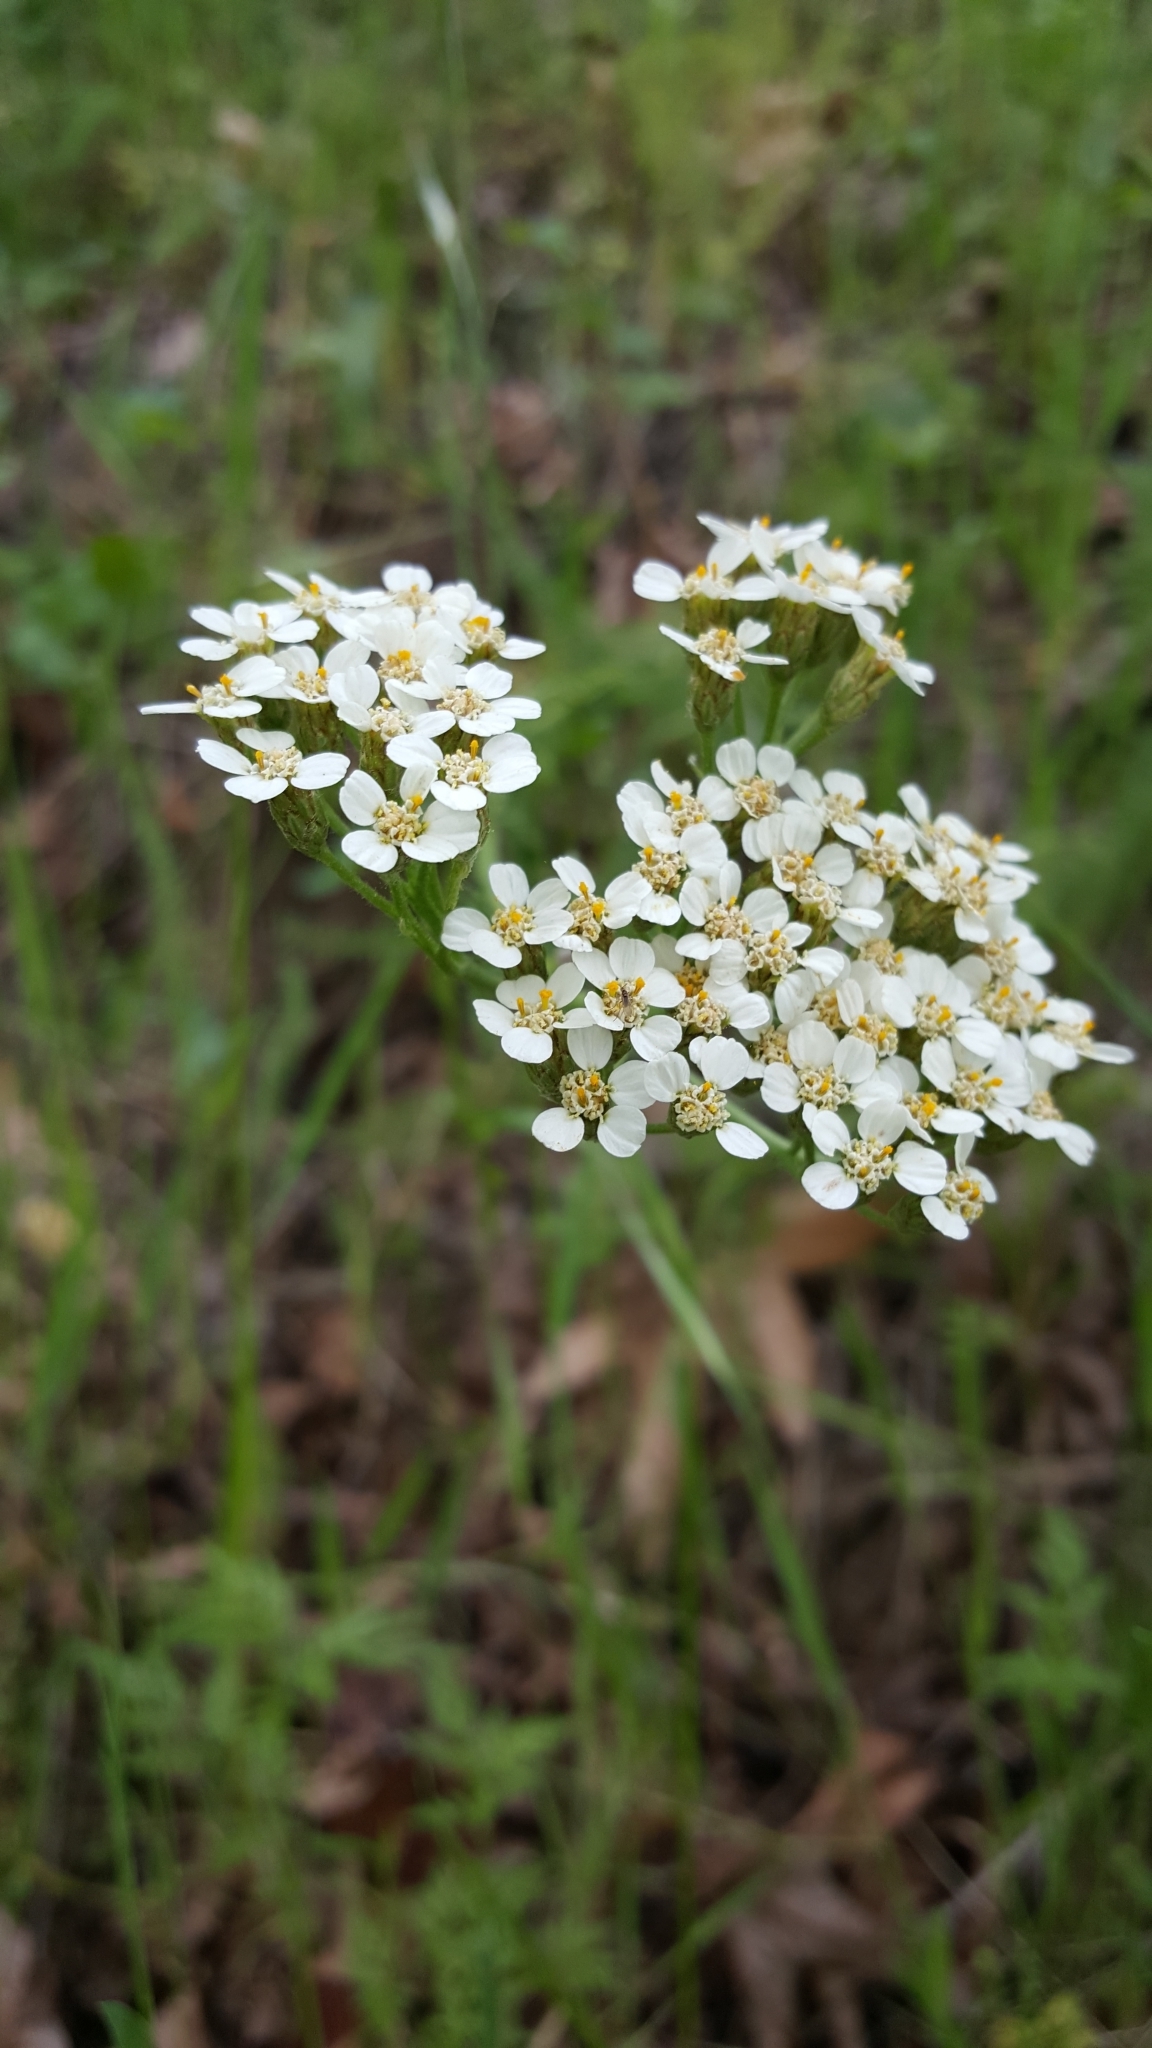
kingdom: Plantae
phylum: Tracheophyta
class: Magnoliopsida
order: Asterales
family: Asteraceae
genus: Achillea
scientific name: Achillea millefolium
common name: Yarrow
